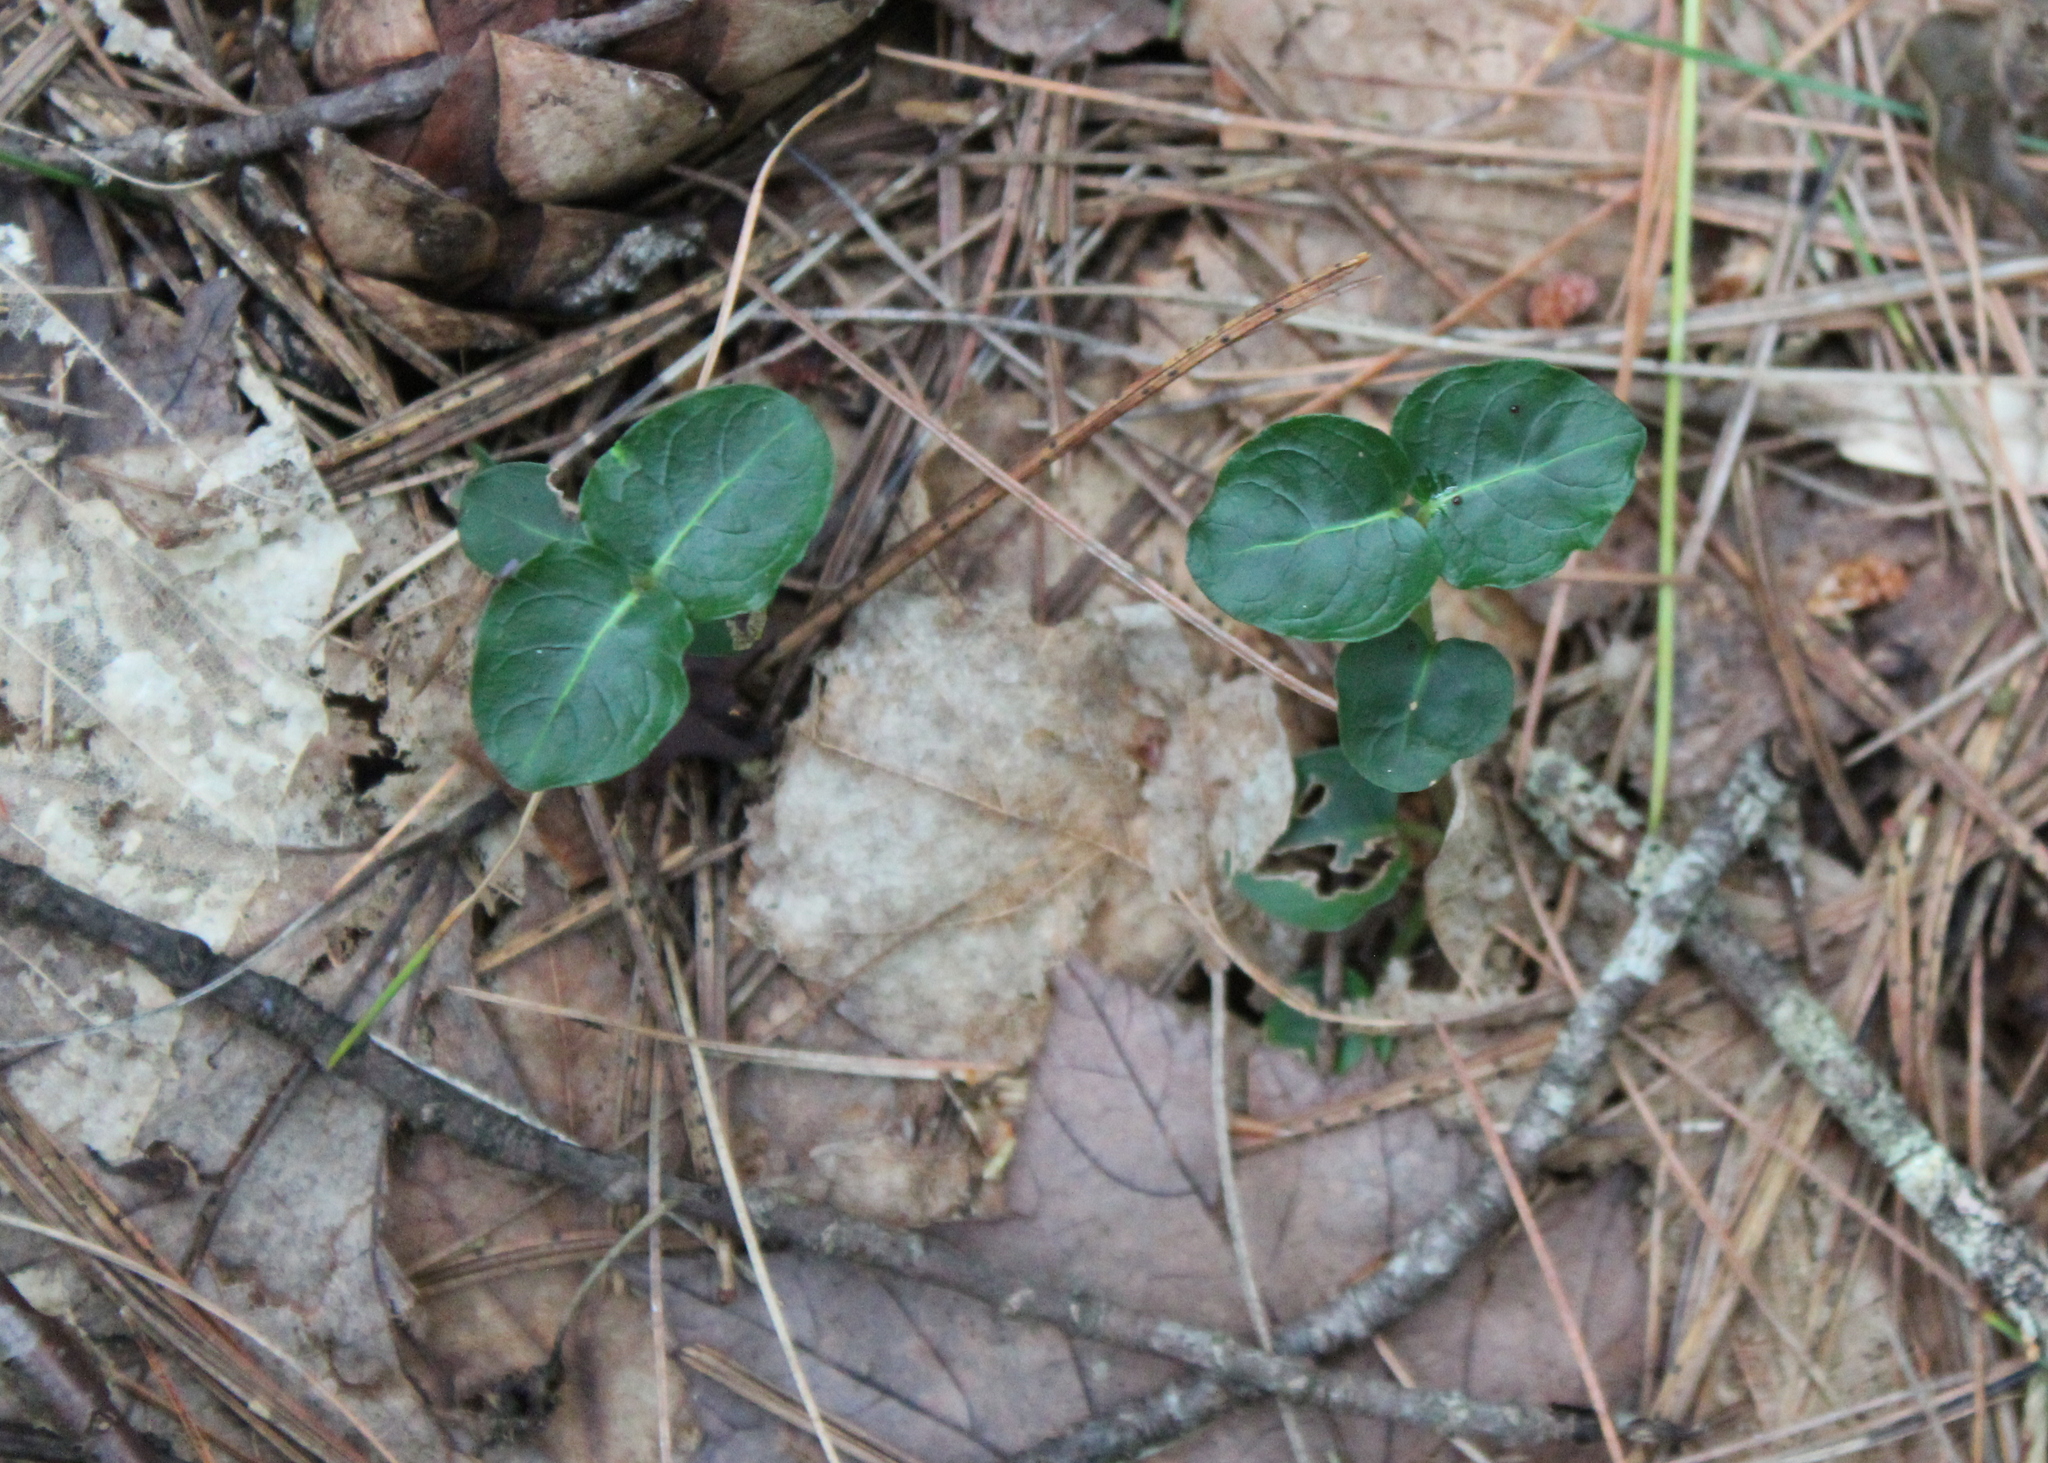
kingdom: Plantae
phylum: Tracheophyta
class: Magnoliopsida
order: Gentianales
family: Rubiaceae
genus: Mitchella
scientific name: Mitchella repens
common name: Partridge-berry
